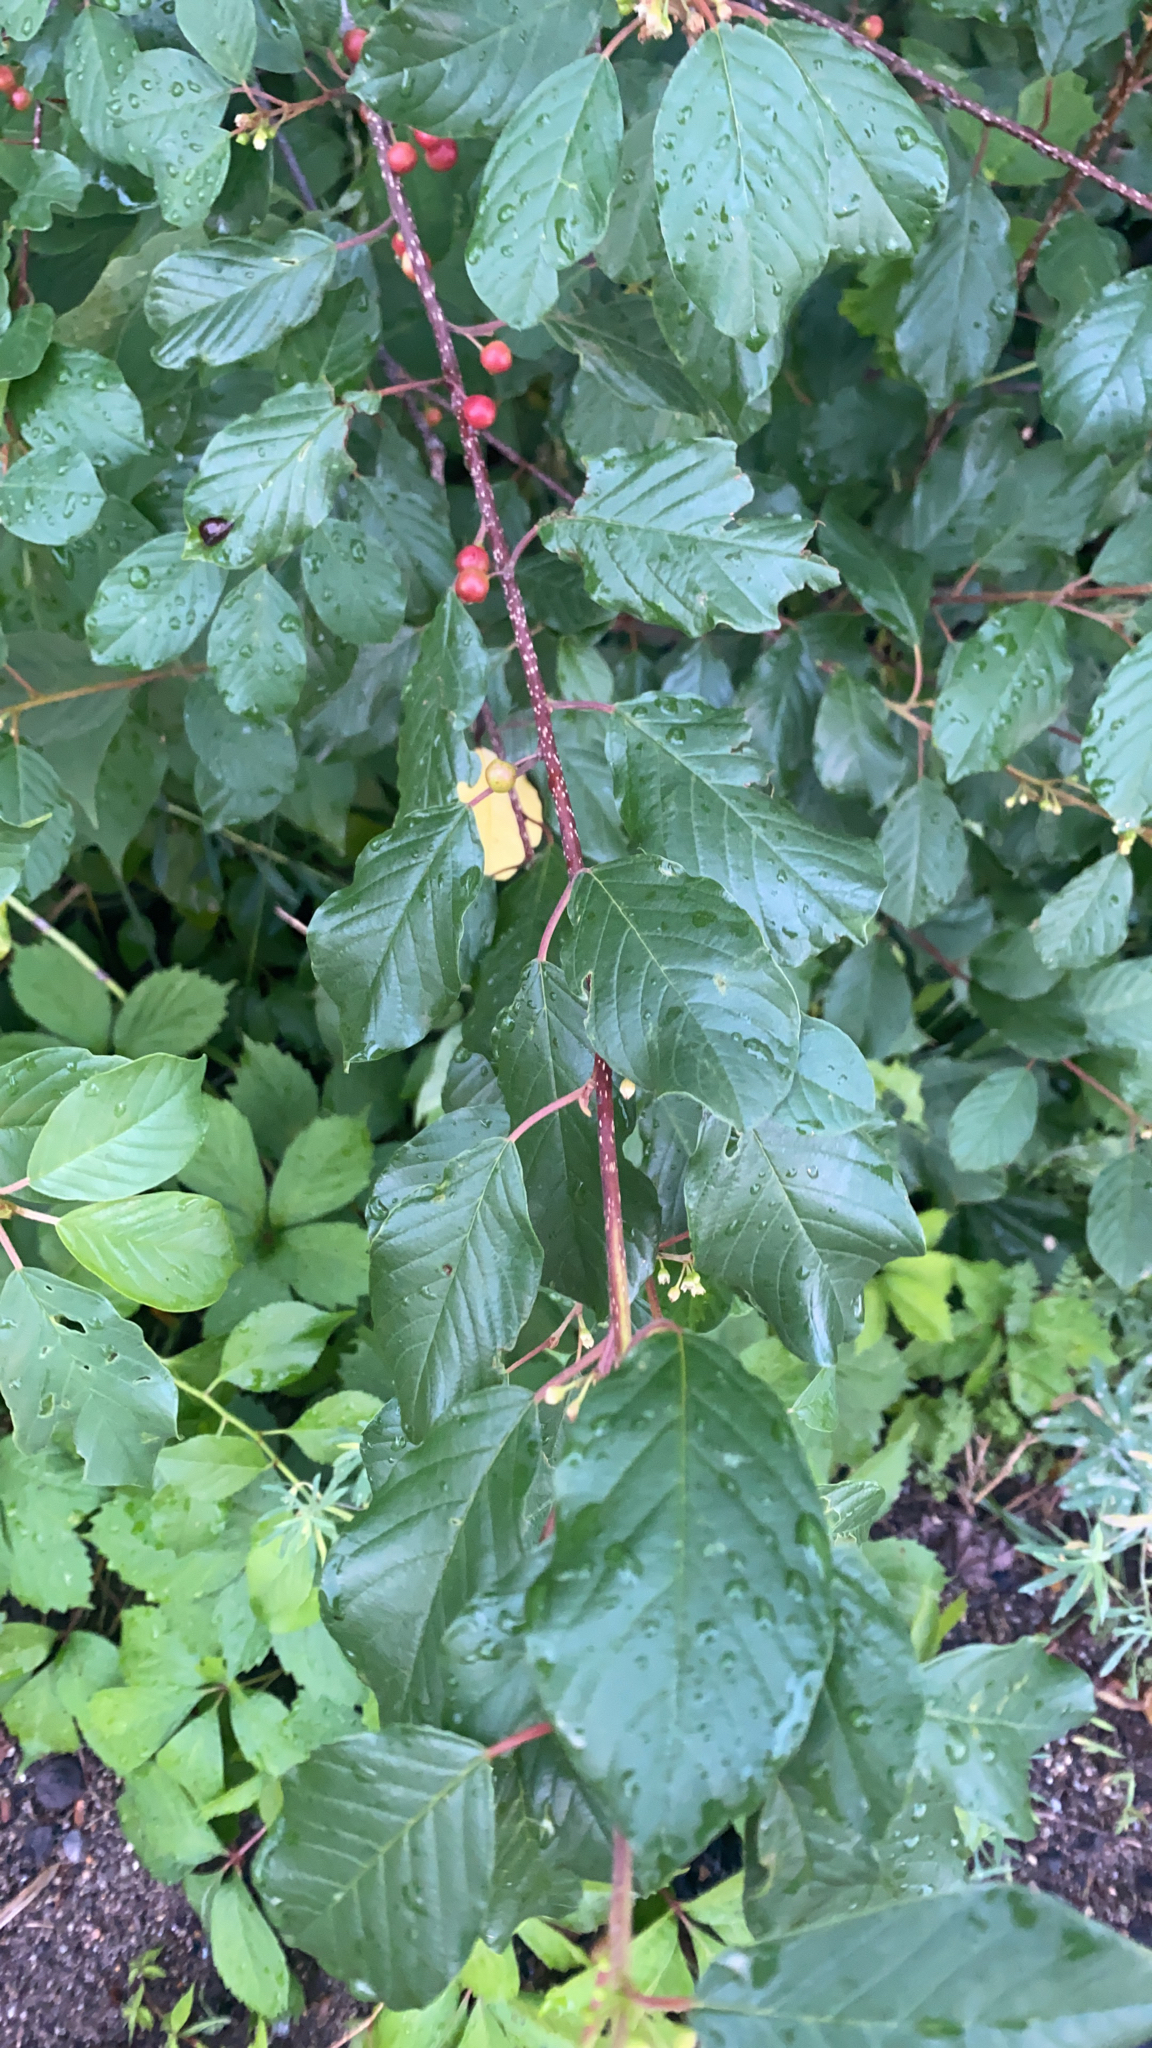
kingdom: Plantae
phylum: Tracheophyta
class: Magnoliopsida
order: Rosales
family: Rhamnaceae
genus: Frangula
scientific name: Frangula alnus
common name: Alder buckthorn
